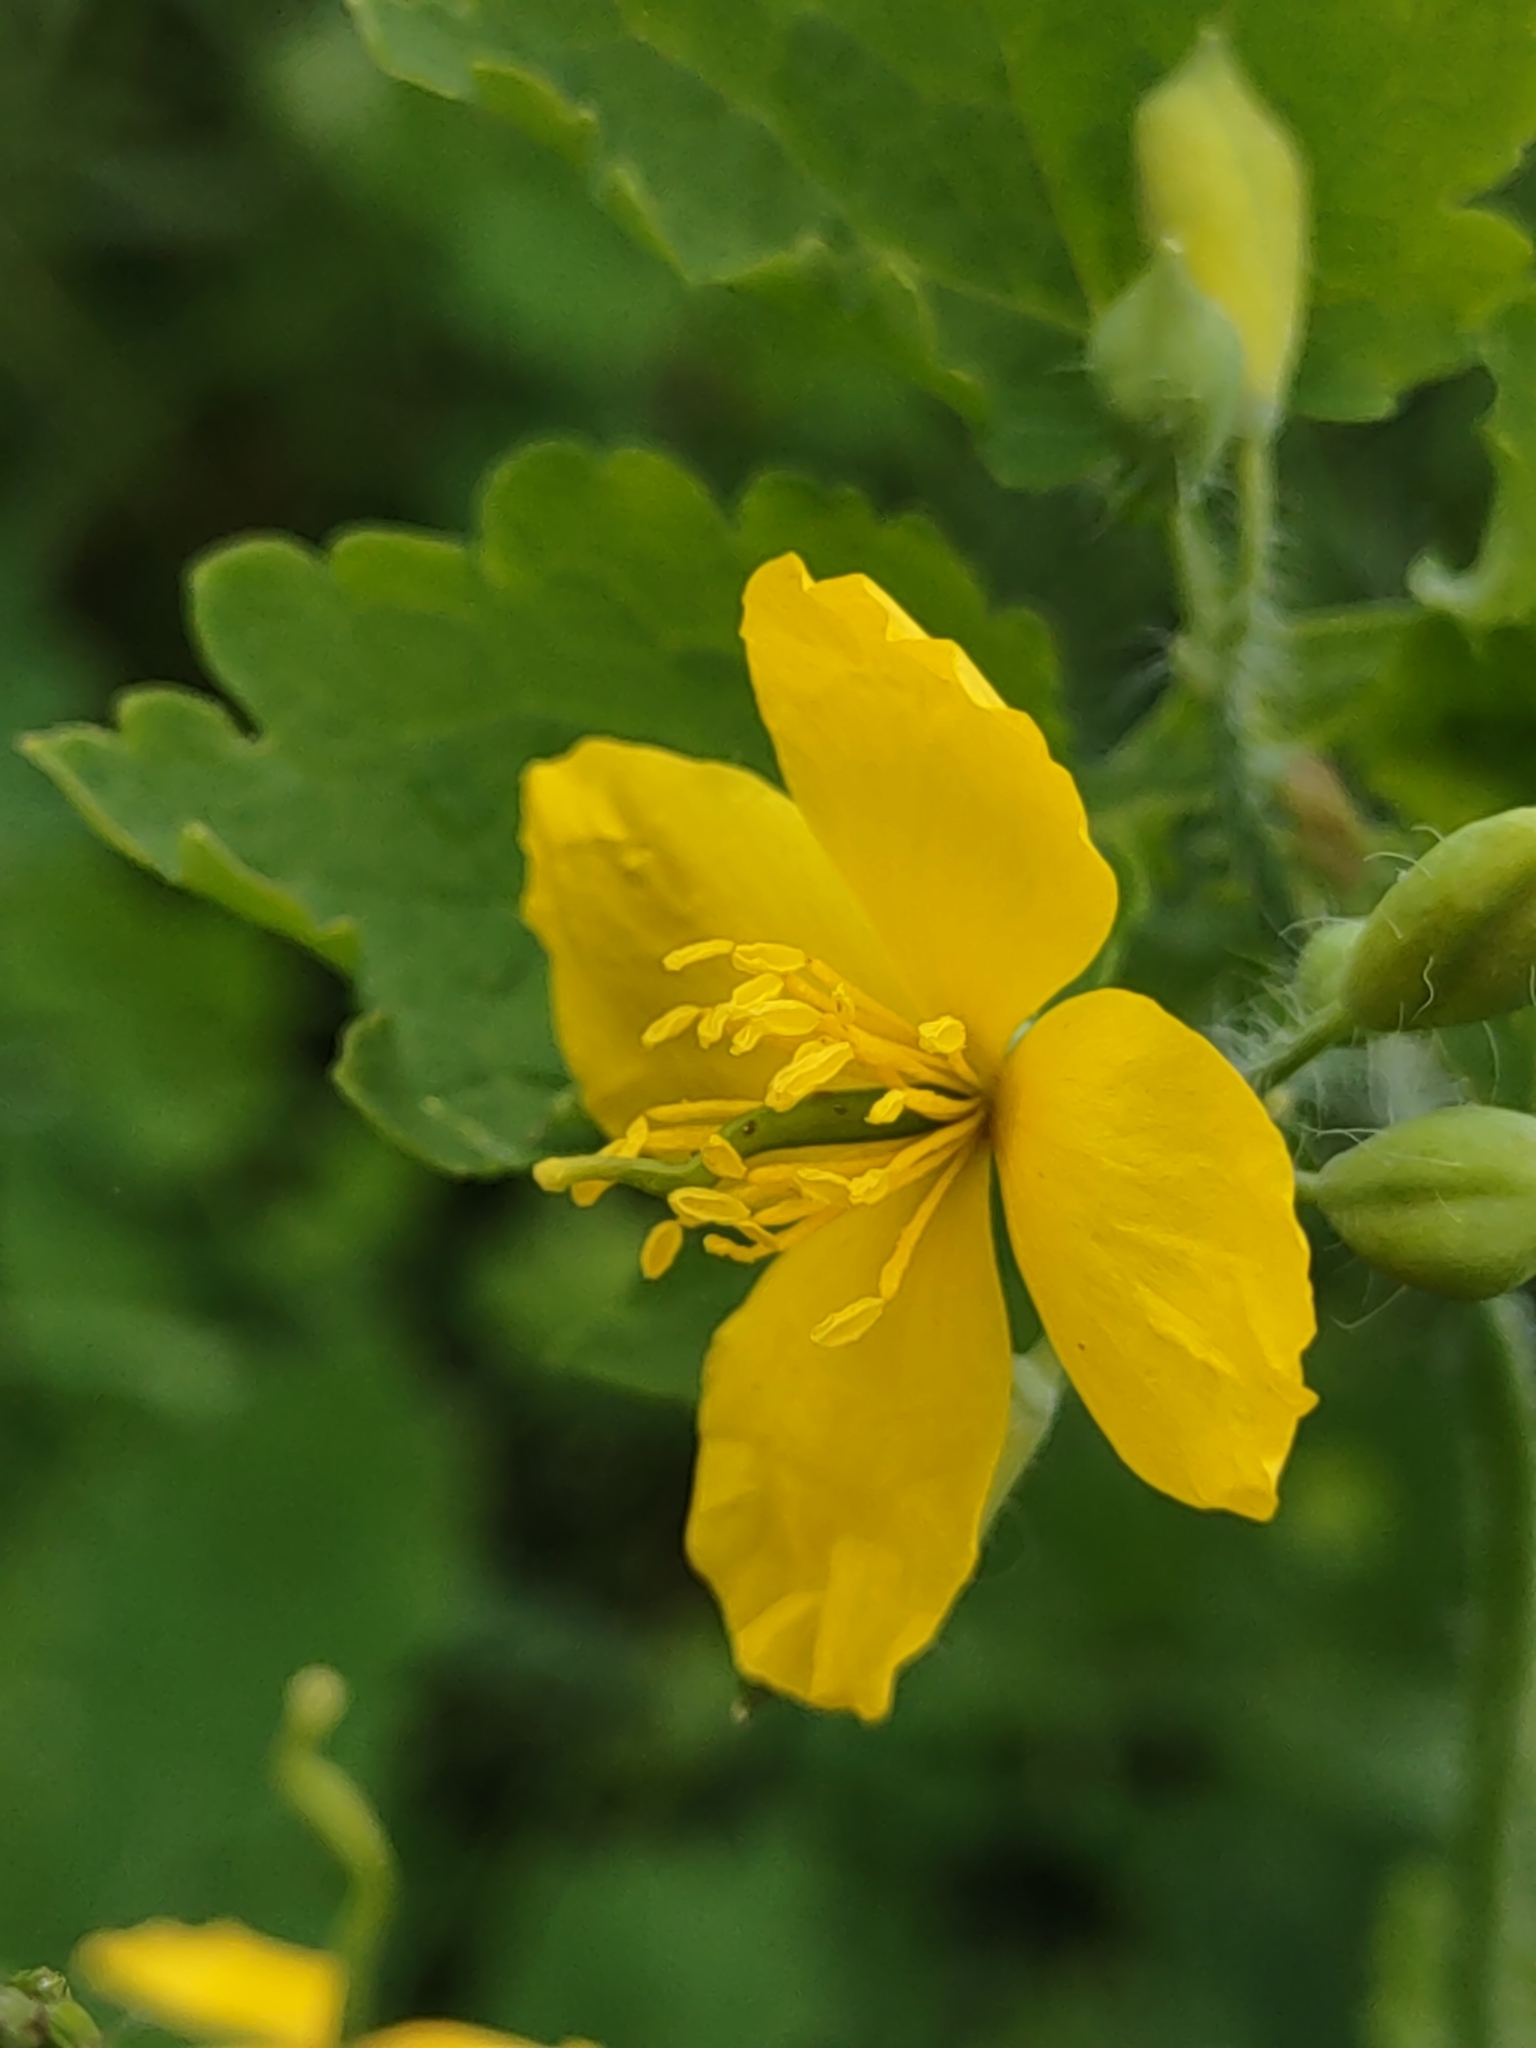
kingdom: Plantae
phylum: Tracheophyta
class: Magnoliopsida
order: Ranunculales
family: Papaveraceae
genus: Chelidonium
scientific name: Chelidonium majus
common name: Greater celandine
